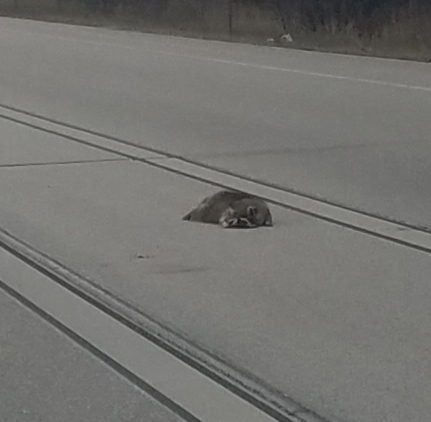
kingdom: Animalia
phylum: Chordata
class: Mammalia
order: Carnivora
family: Procyonidae
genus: Procyon
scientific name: Procyon lotor
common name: Raccoon
